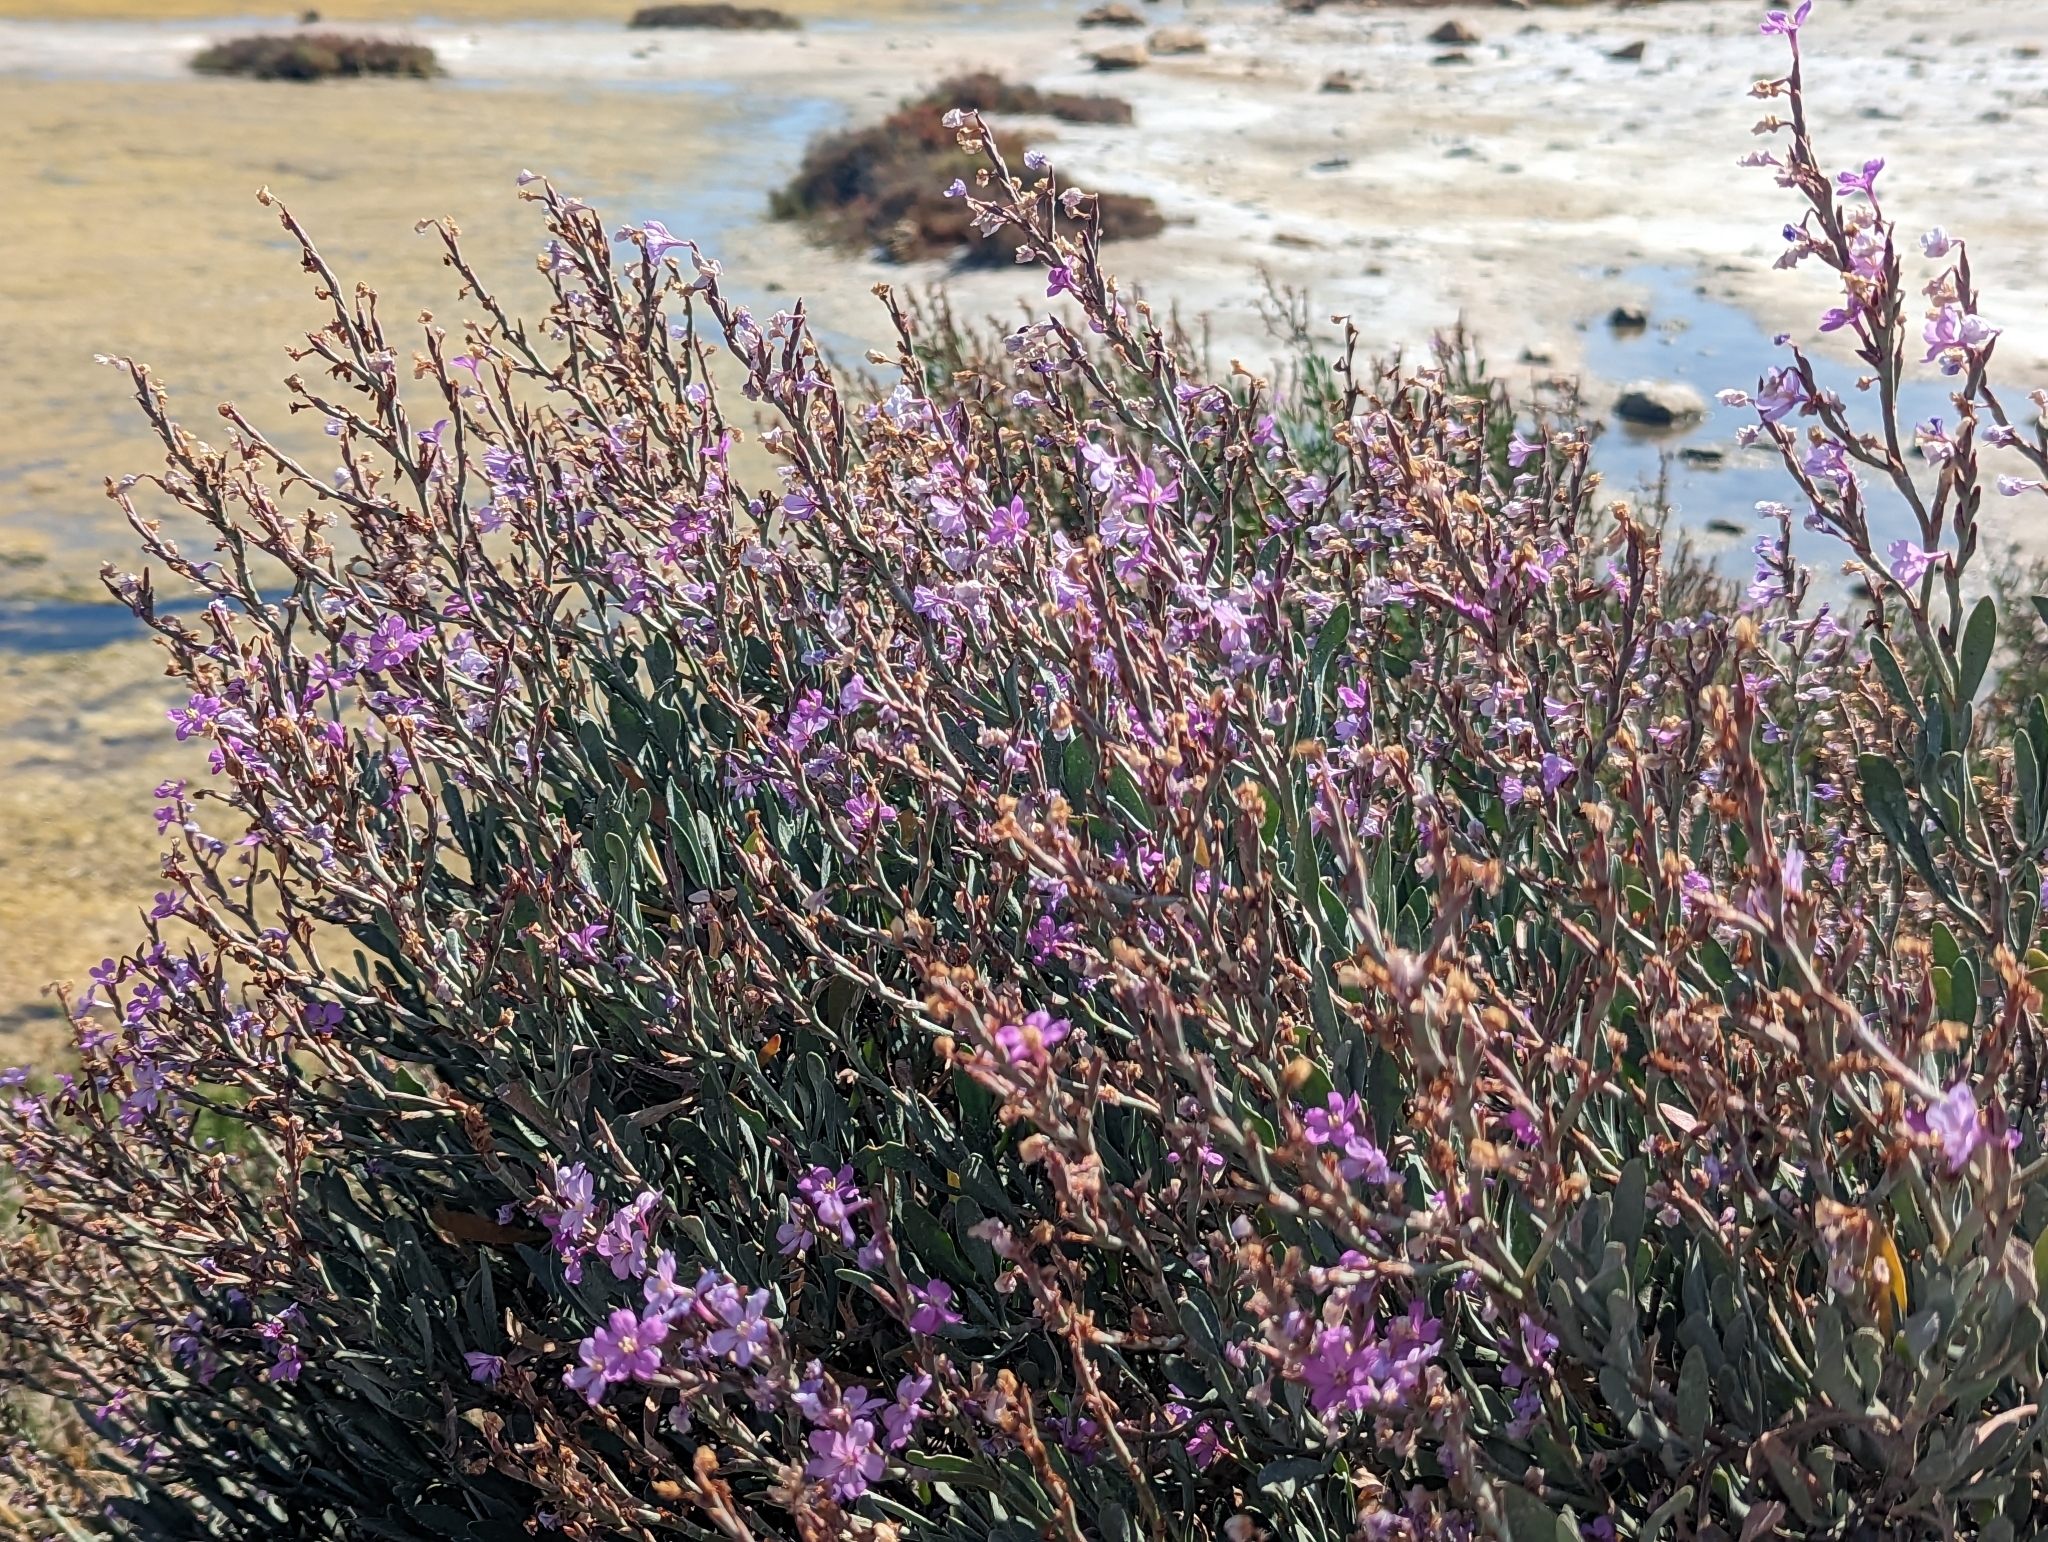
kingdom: Plantae
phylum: Tracheophyta
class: Magnoliopsida
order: Caryophyllales
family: Plumbaginaceae
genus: Limoniastrum
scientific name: Limoniastrum monopetalum
